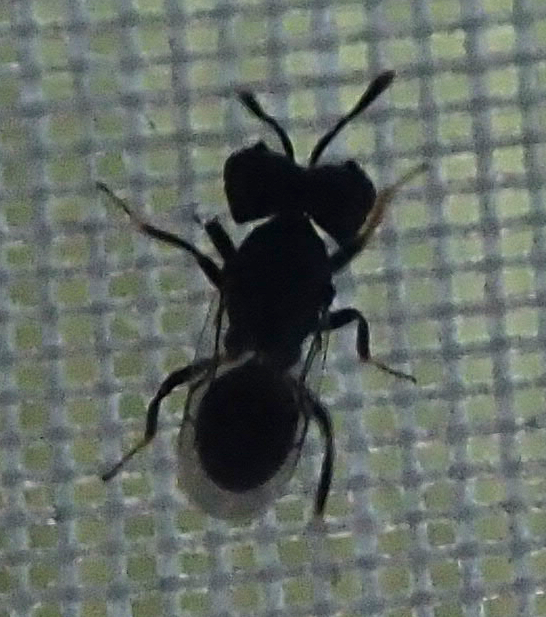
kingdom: Animalia
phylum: Arthropoda
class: Insecta
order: Hymenoptera
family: Pteromalidae
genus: Cratomus
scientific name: Cratomus megacephalus
